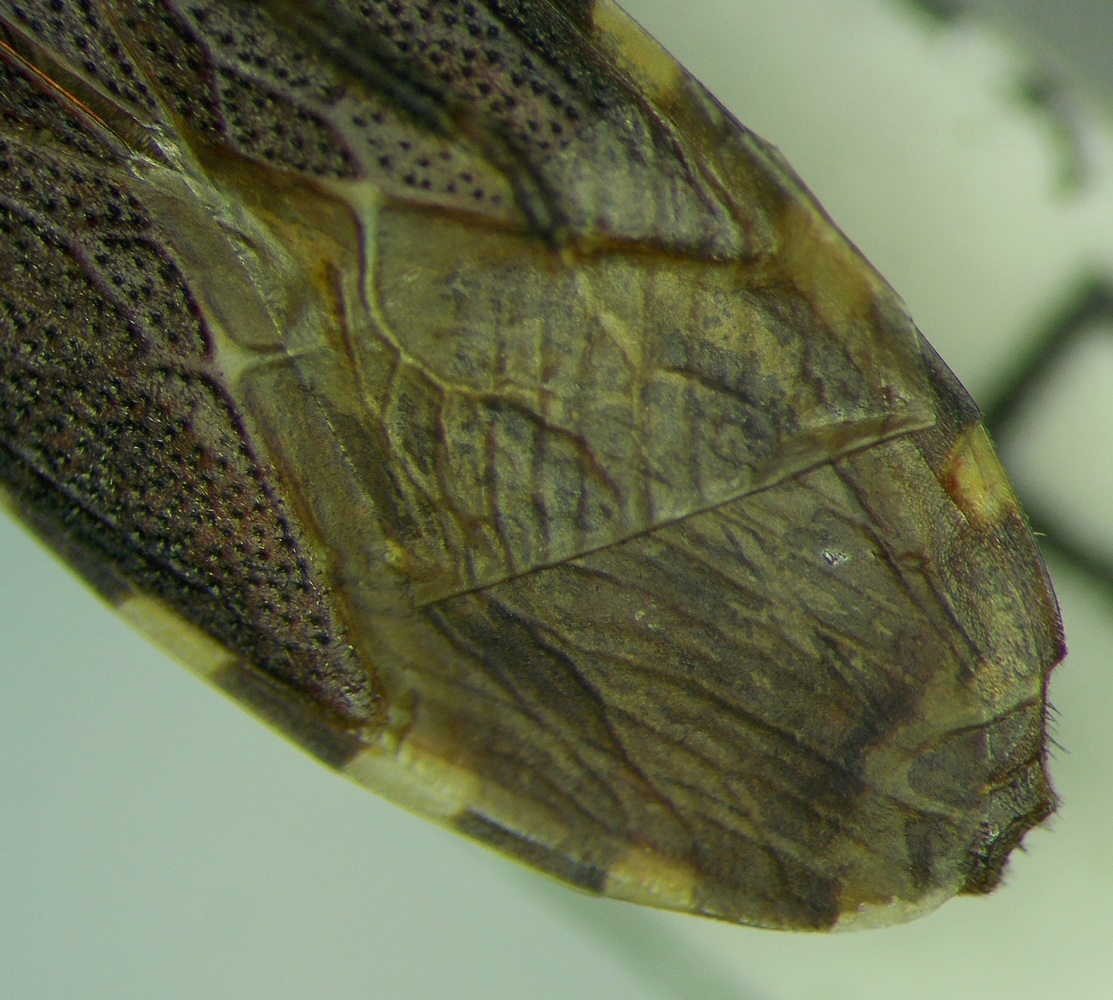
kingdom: Animalia
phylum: Arthropoda
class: Insecta
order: Hemiptera
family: Stenocephalidae
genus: Dicranocephalus
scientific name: Dicranocephalus albipes
